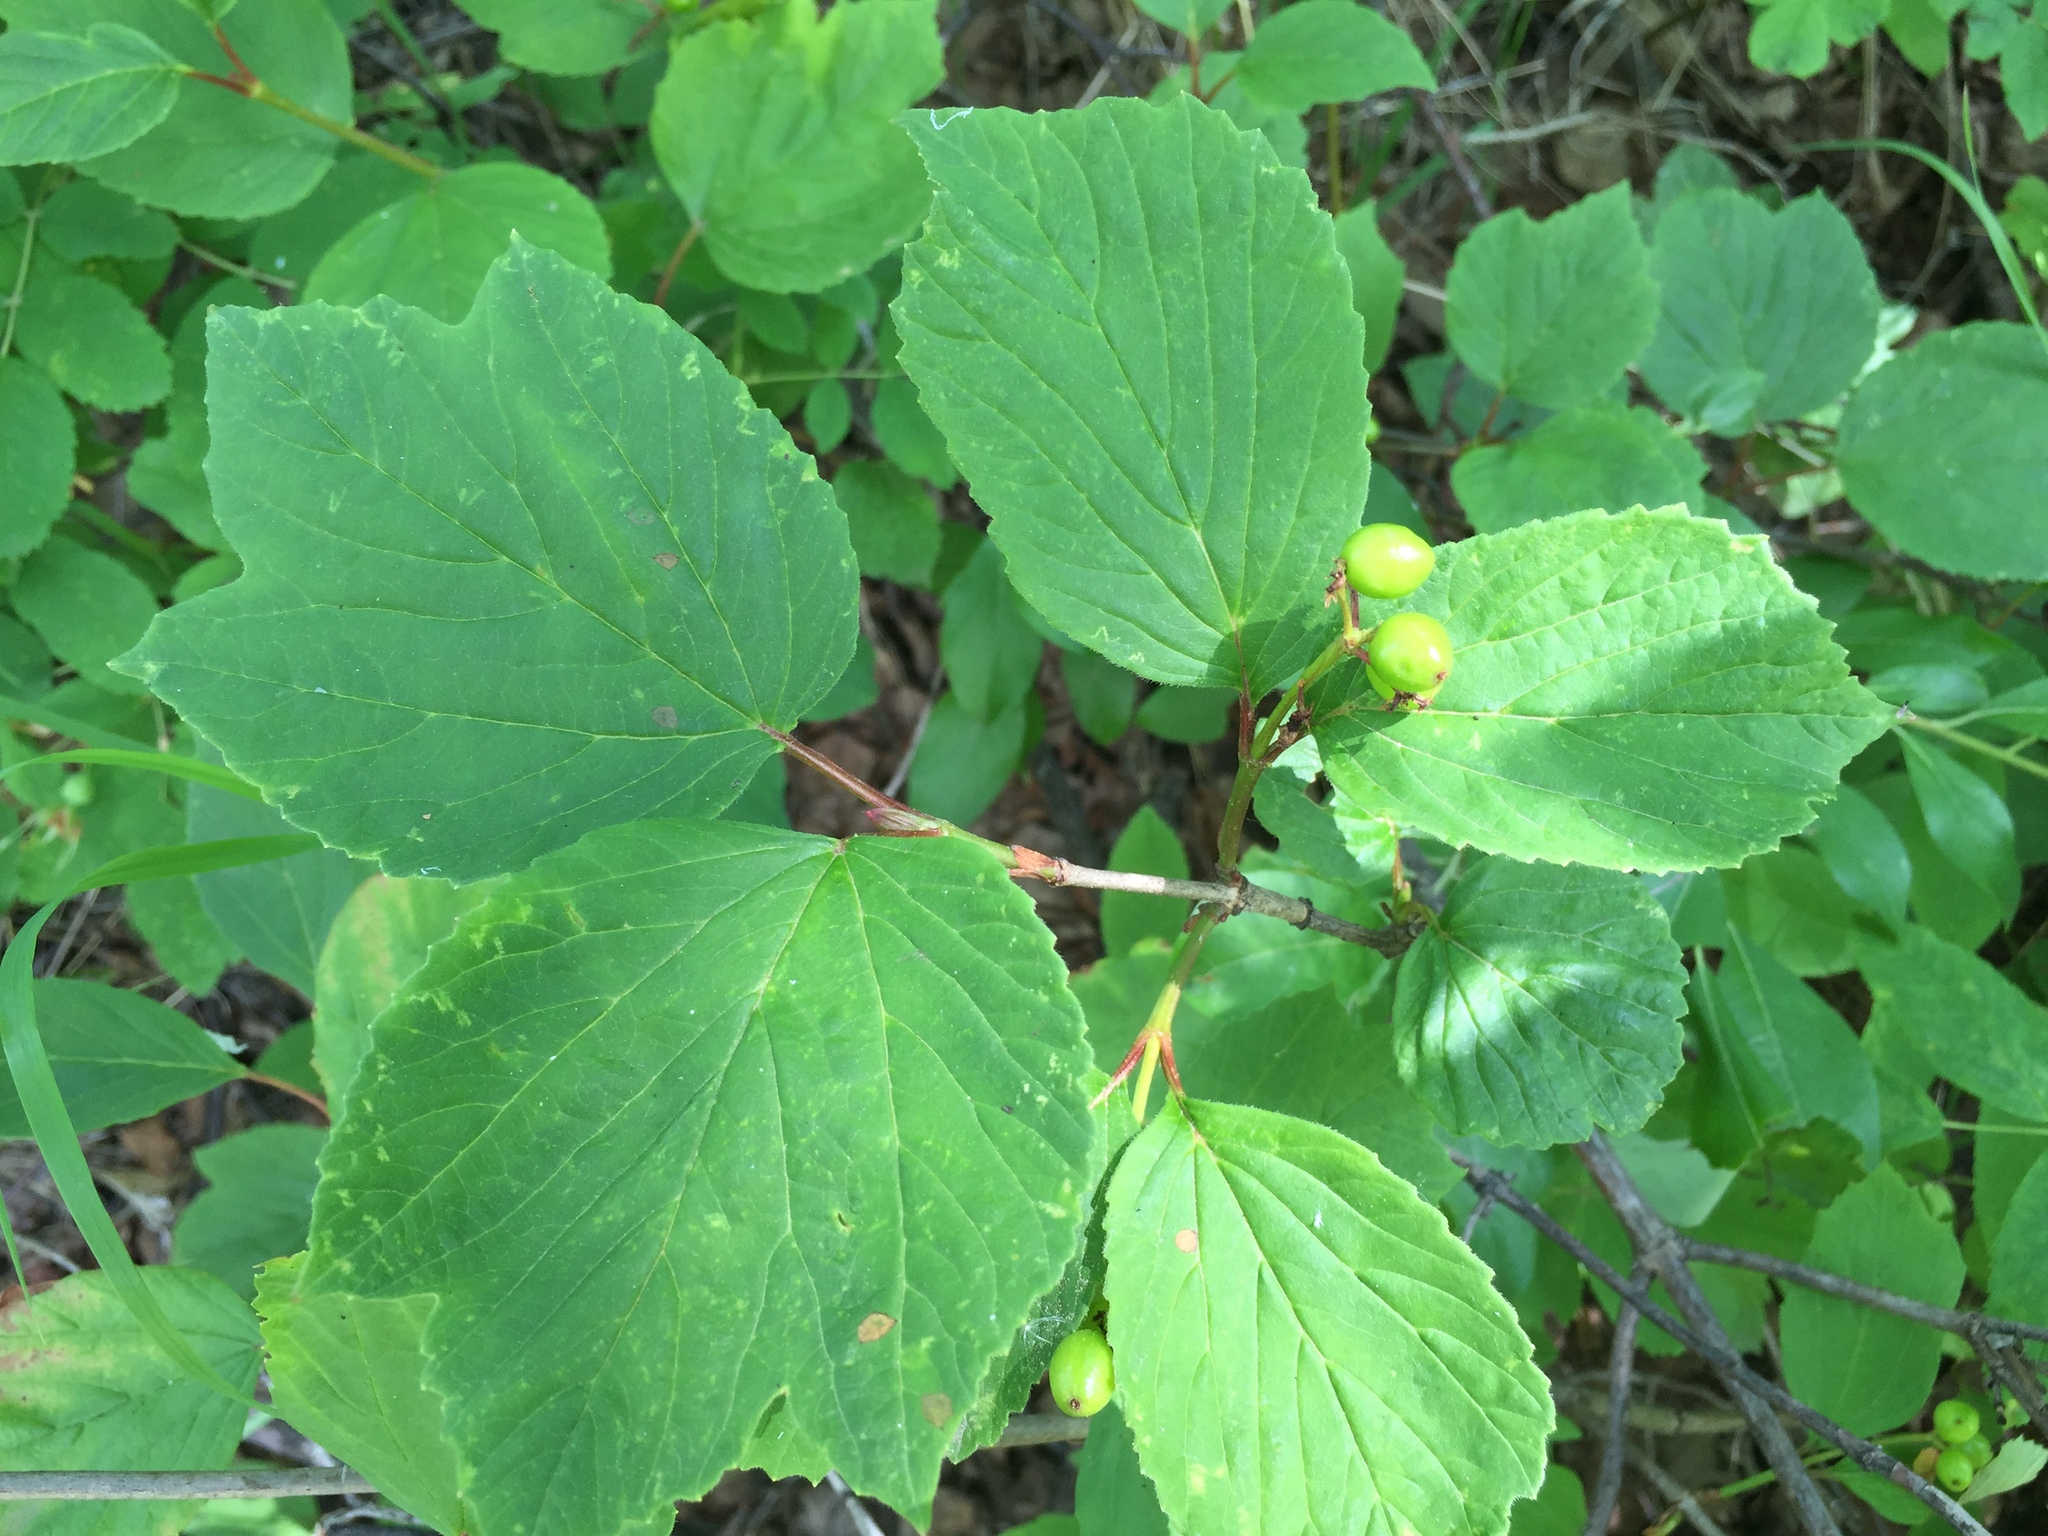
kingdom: Plantae
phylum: Tracheophyta
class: Magnoliopsida
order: Dipsacales
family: Viburnaceae
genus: Viburnum
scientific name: Viburnum edule
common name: Mooseberry
